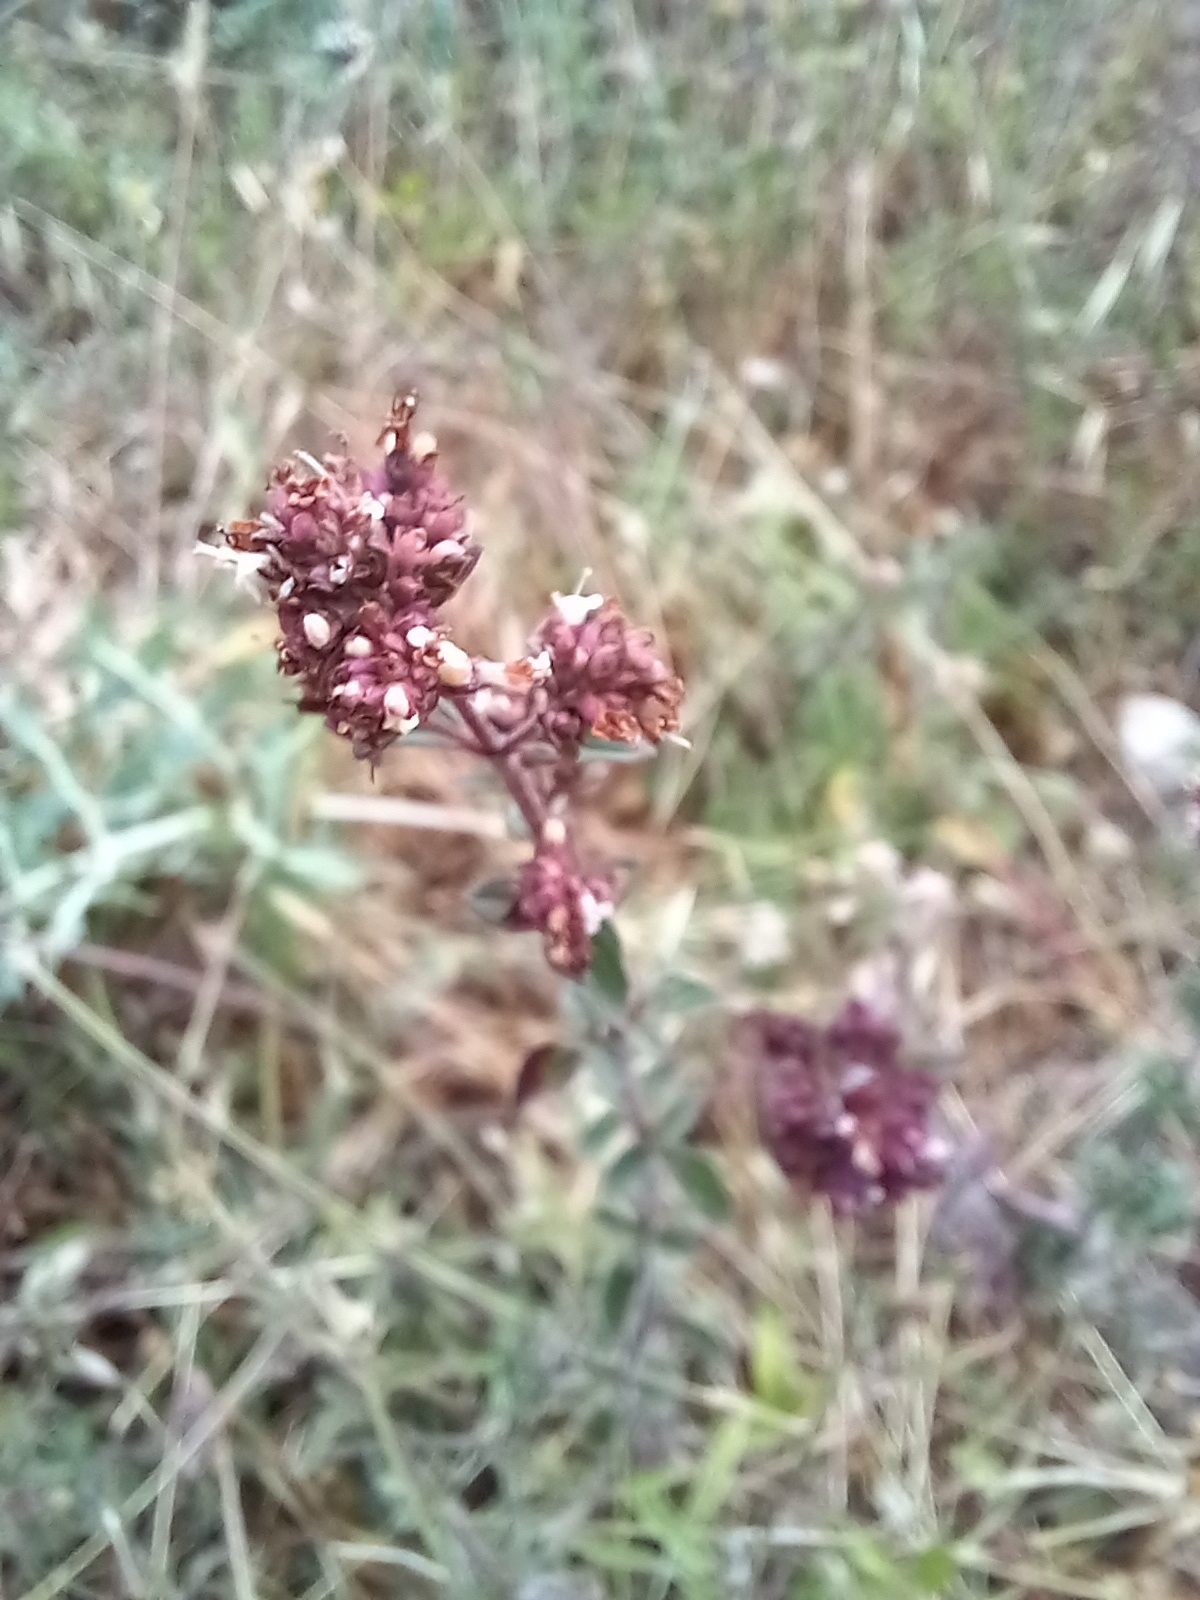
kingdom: Plantae
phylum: Tracheophyta
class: Magnoliopsida
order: Lamiales
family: Lamiaceae
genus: Origanum
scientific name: Origanum vulgare
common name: Wild marjoram
